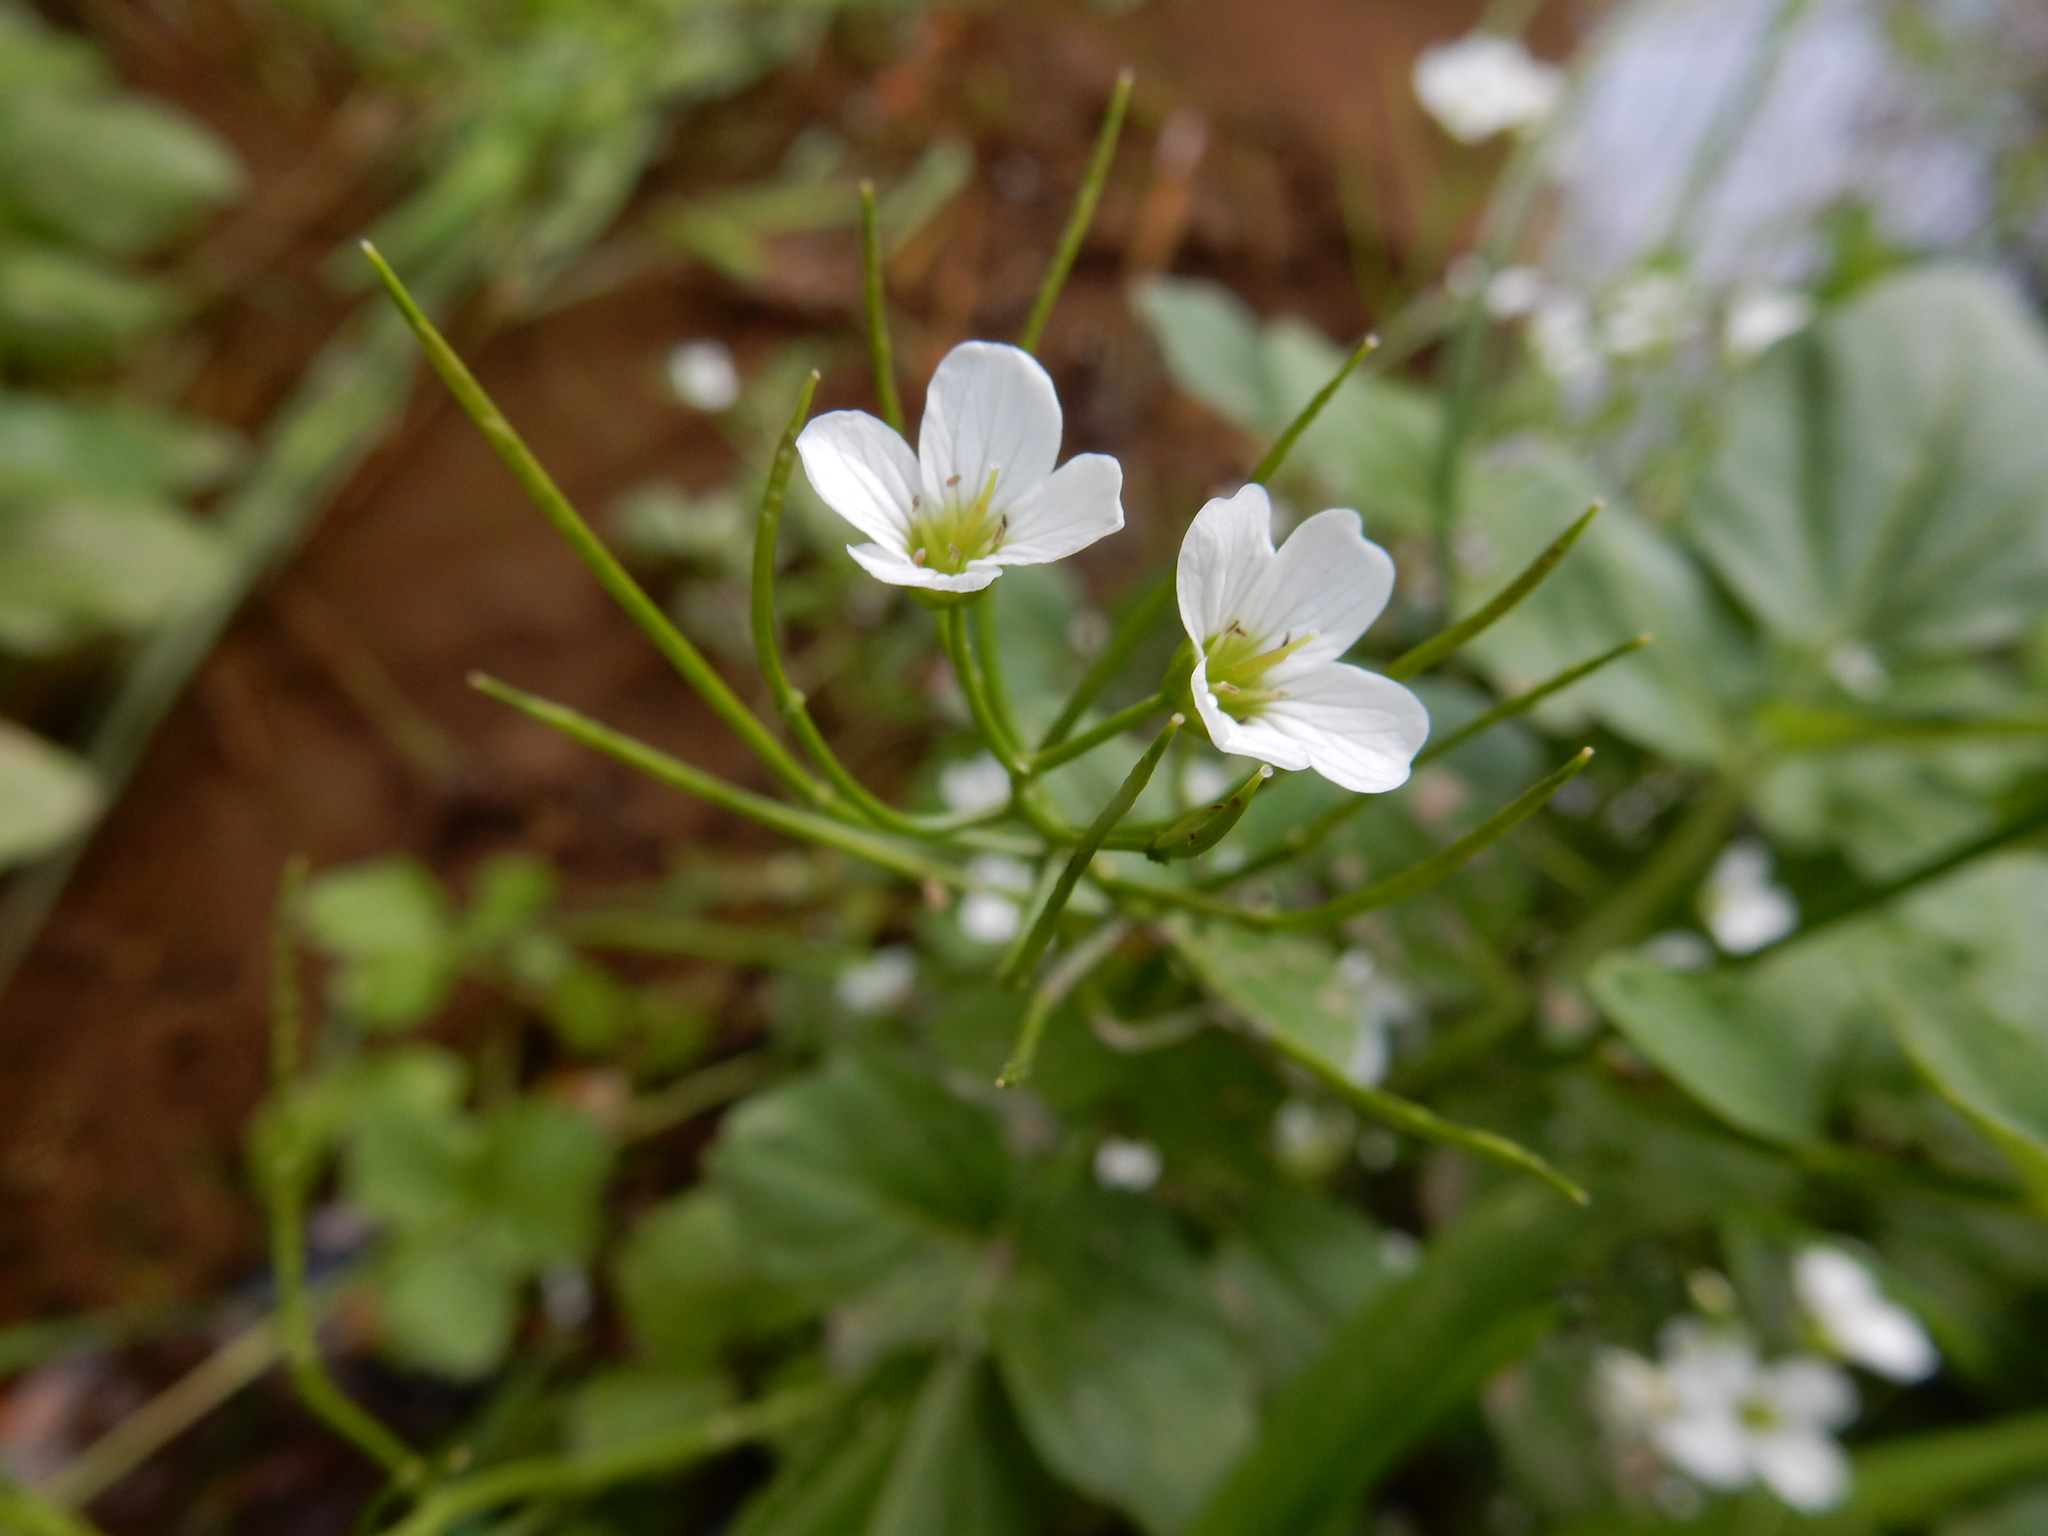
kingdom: Plantae
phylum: Tracheophyta
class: Magnoliopsida
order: Brassicales
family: Brassicaceae
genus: Cardamine
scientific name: Cardamine amara
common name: Large bitter-cress
